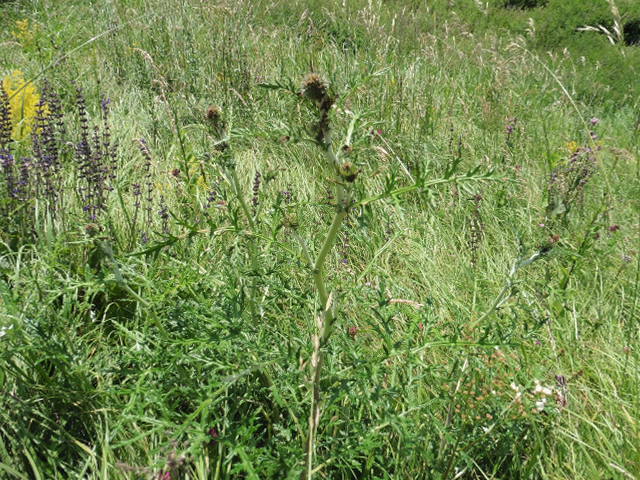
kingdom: Plantae
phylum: Tracheophyta
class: Magnoliopsida
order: Asterales
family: Asteraceae
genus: Echinops
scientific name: Echinops ritro
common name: Globe thistle
